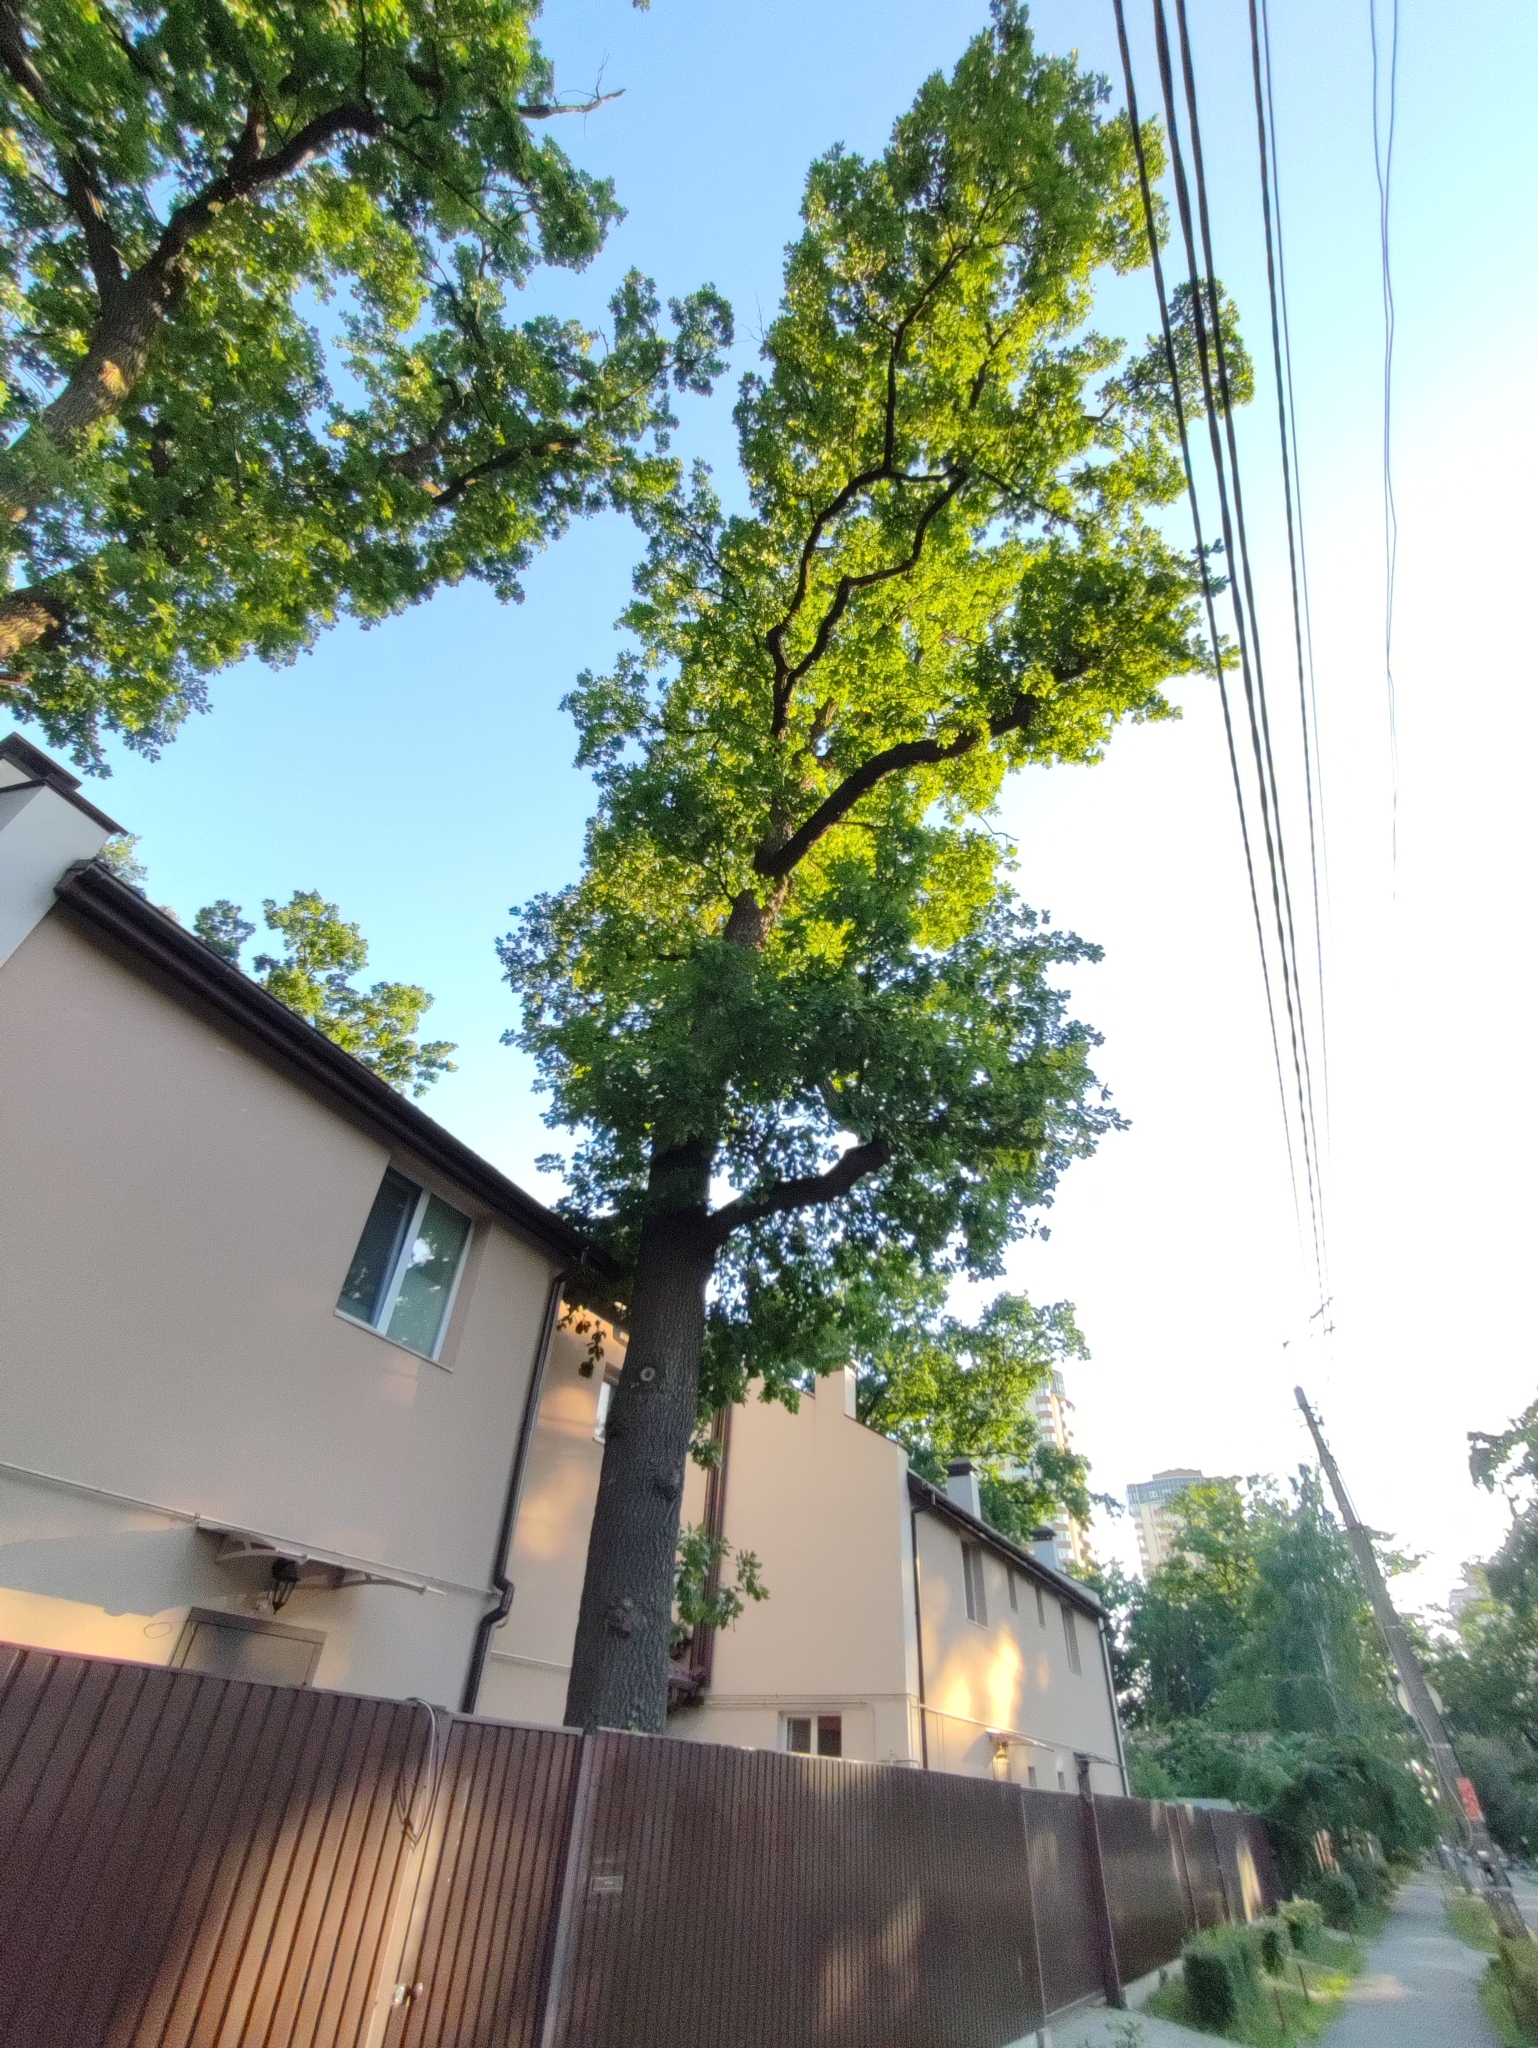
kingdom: Plantae
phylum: Tracheophyta
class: Magnoliopsida
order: Fagales
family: Fagaceae
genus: Quercus
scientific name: Quercus robur
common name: Pedunculate oak
